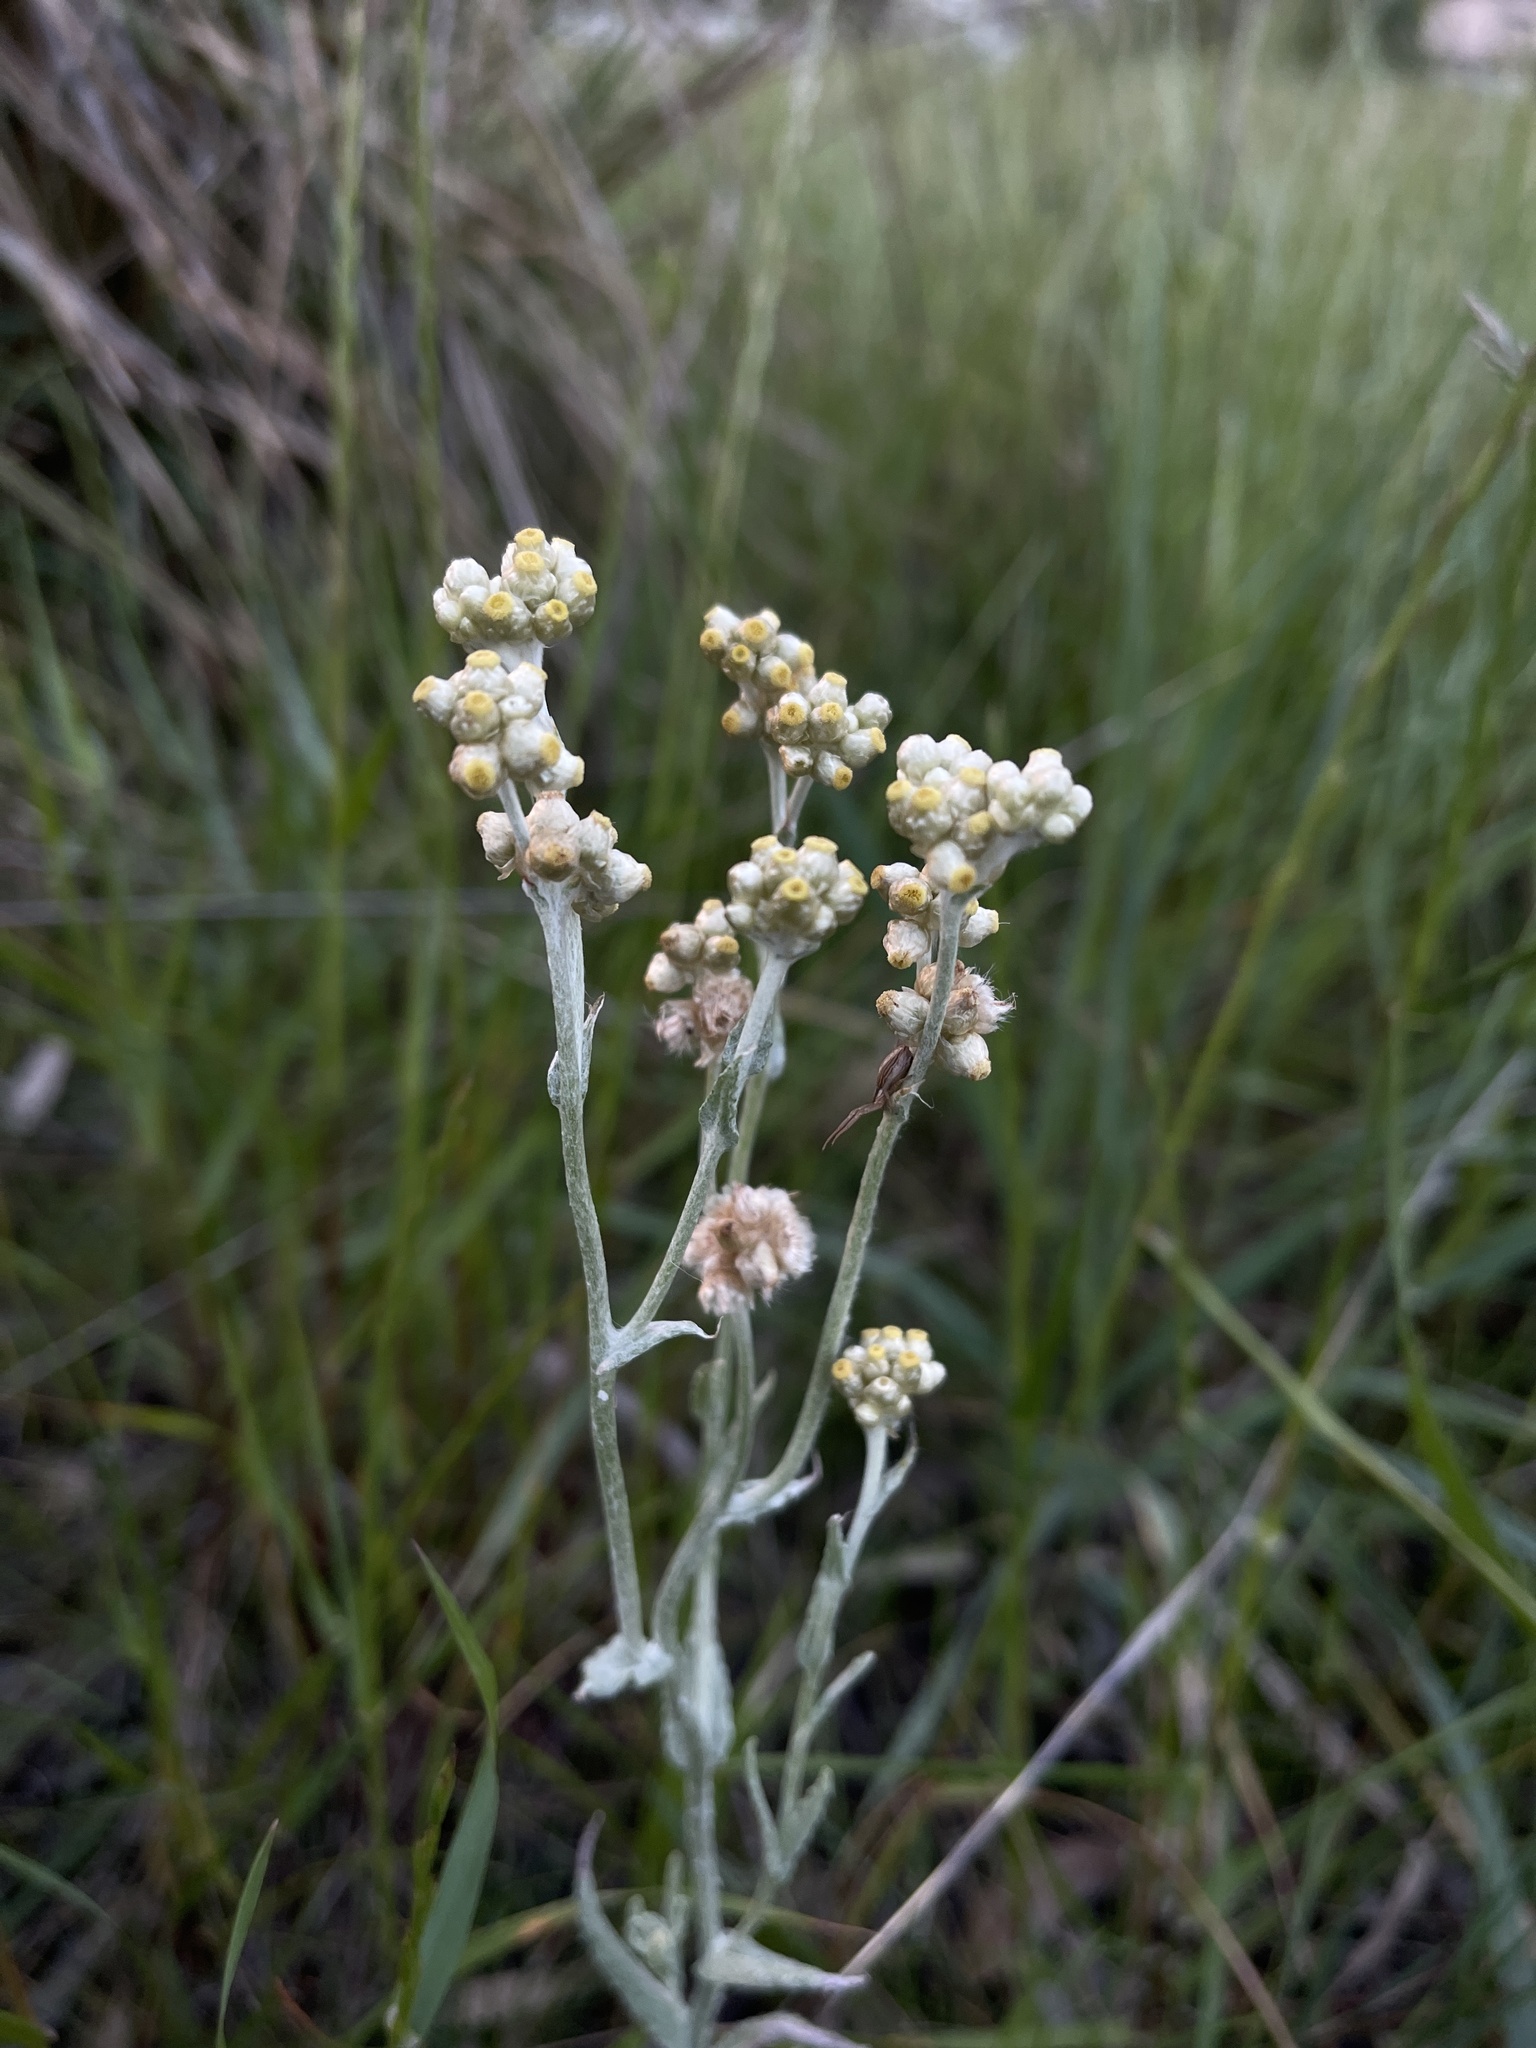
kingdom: Plantae
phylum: Tracheophyta
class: Magnoliopsida
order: Asterales
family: Asteraceae
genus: Helichrysum
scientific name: Helichrysum luteoalbum
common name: Daisy
